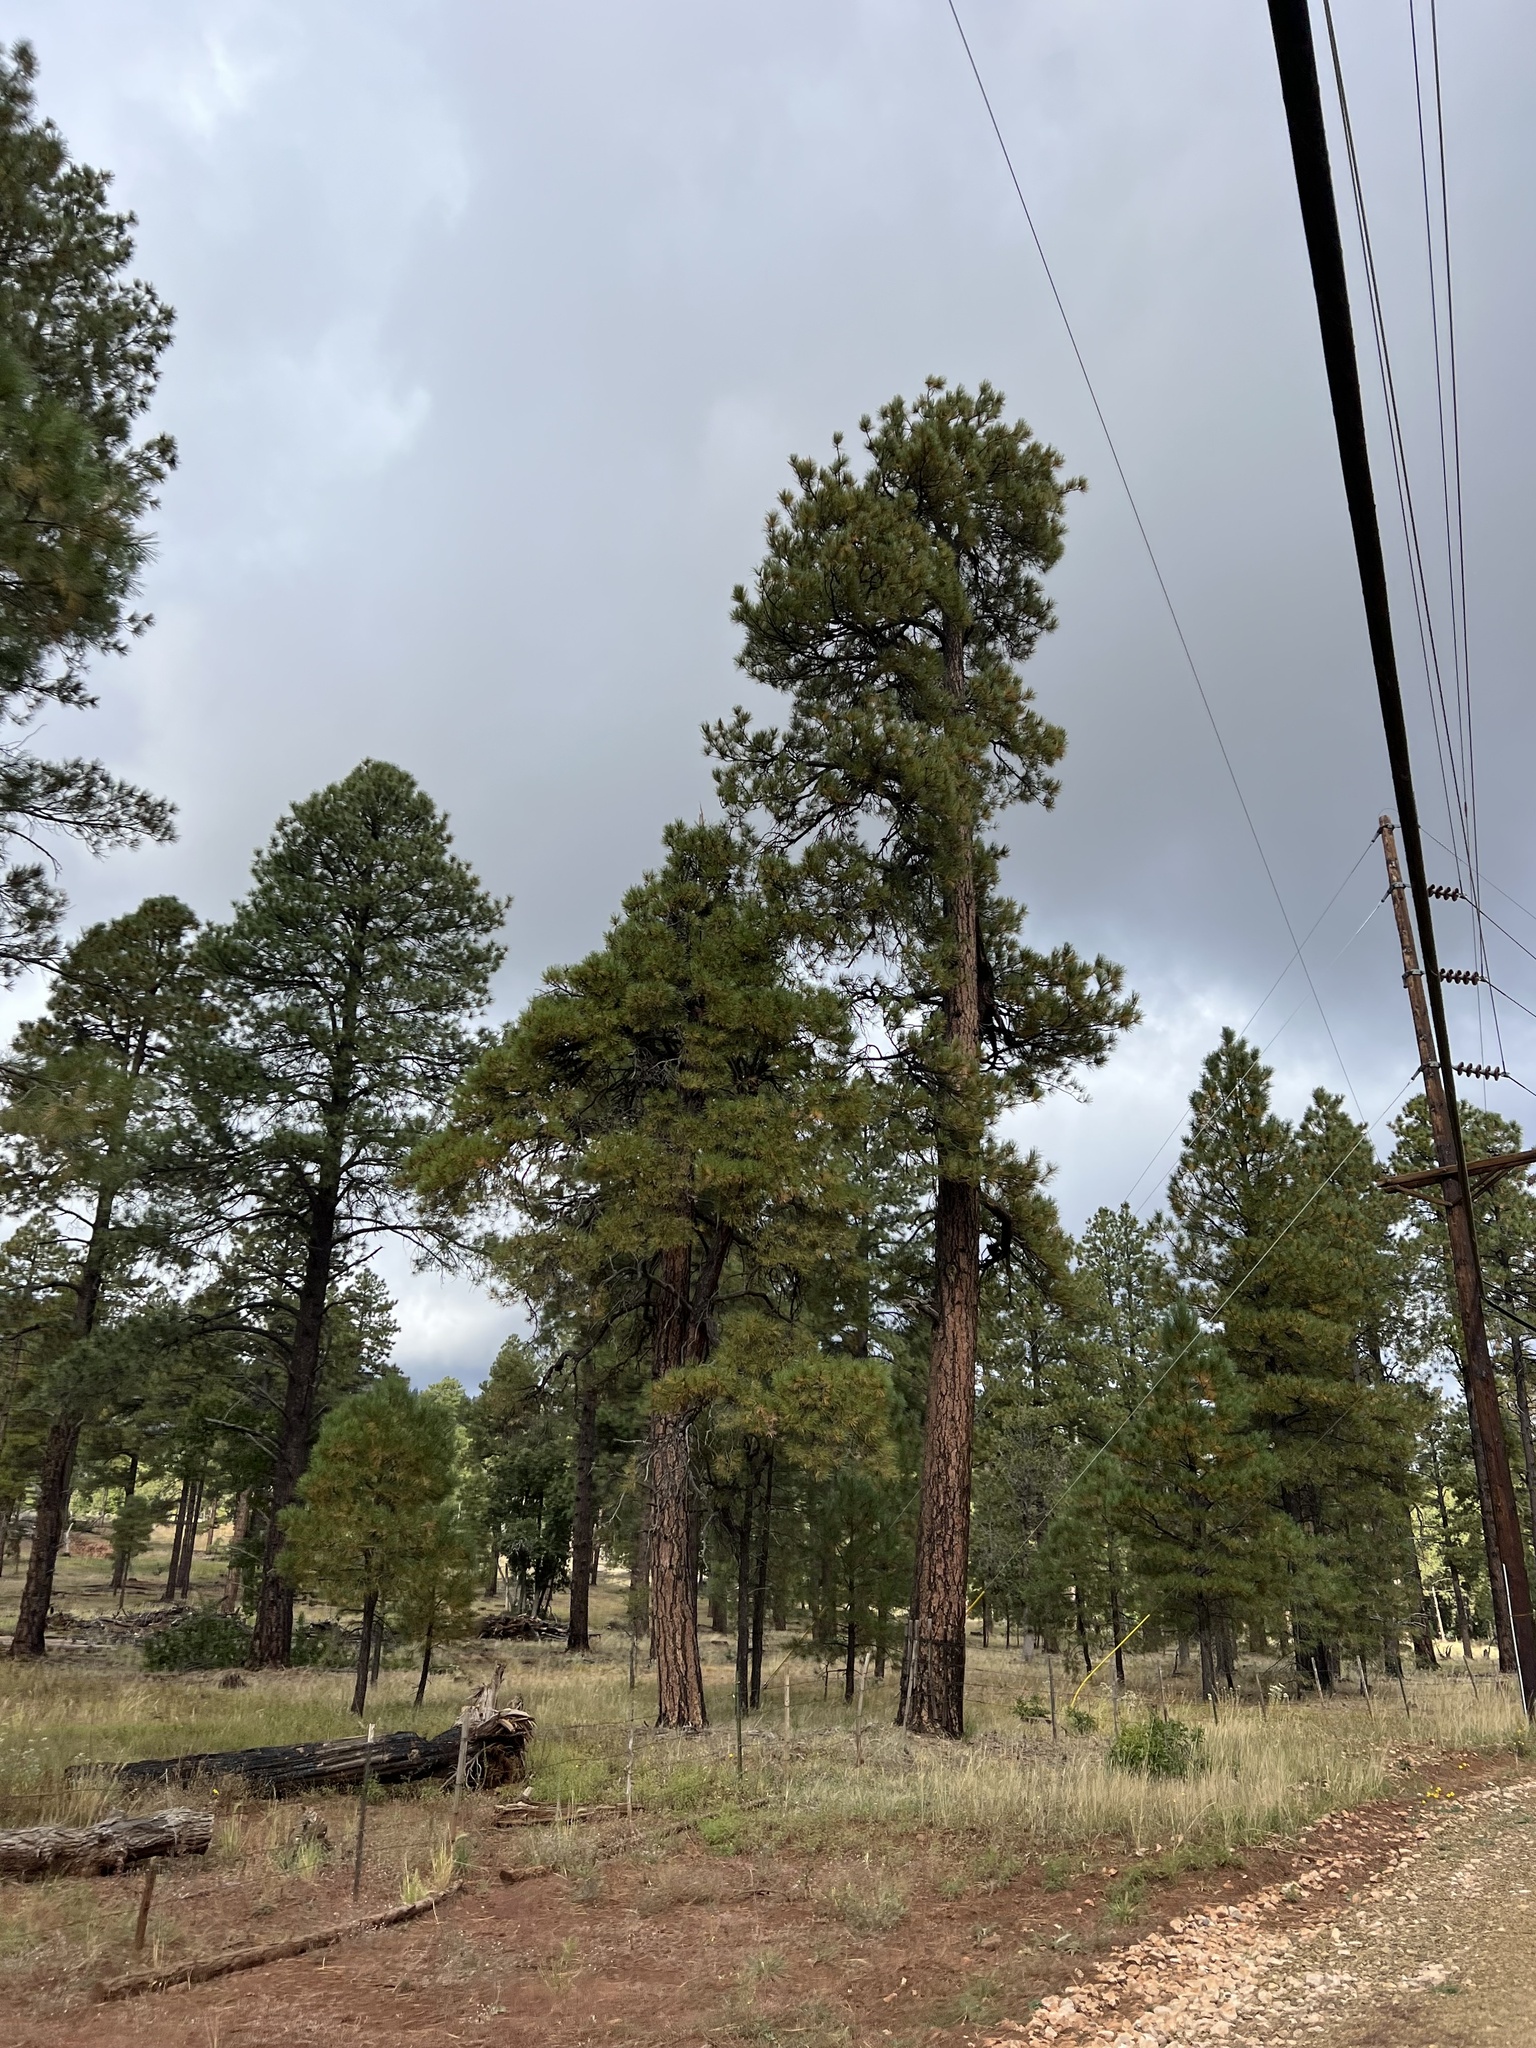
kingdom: Plantae
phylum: Tracheophyta
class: Pinopsida
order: Pinales
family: Pinaceae
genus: Pinus
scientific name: Pinus ponderosa
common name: Western yellow-pine
